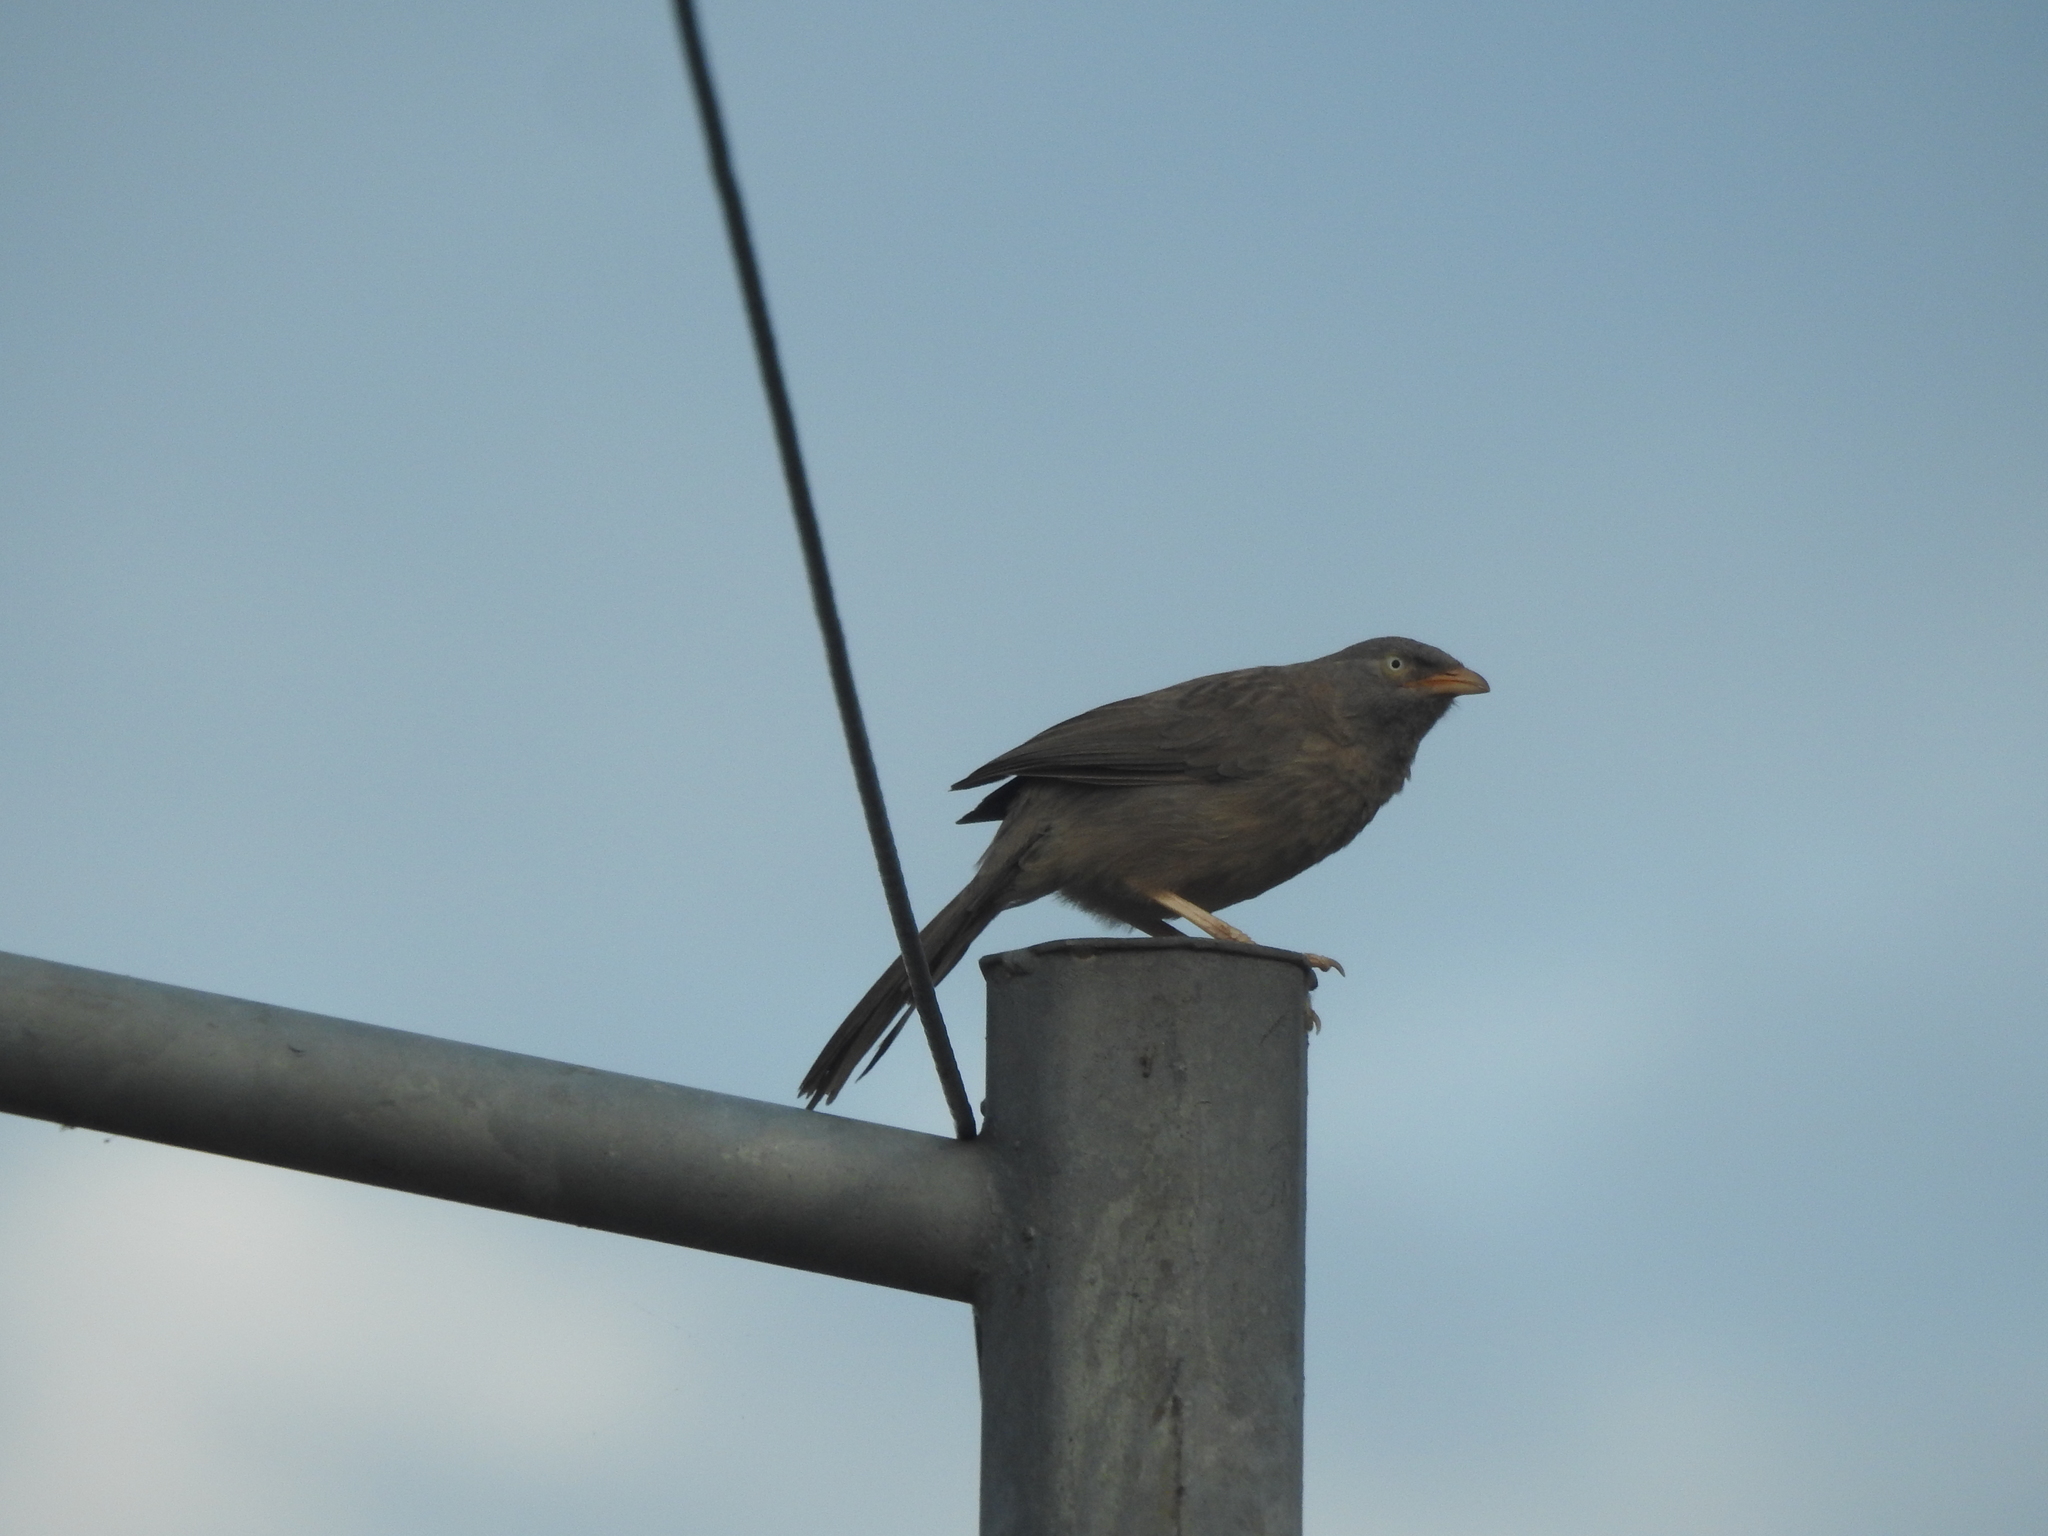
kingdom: Animalia
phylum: Chordata
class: Aves
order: Passeriformes
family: Leiothrichidae
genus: Turdoides
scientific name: Turdoides striata
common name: Jungle babbler
